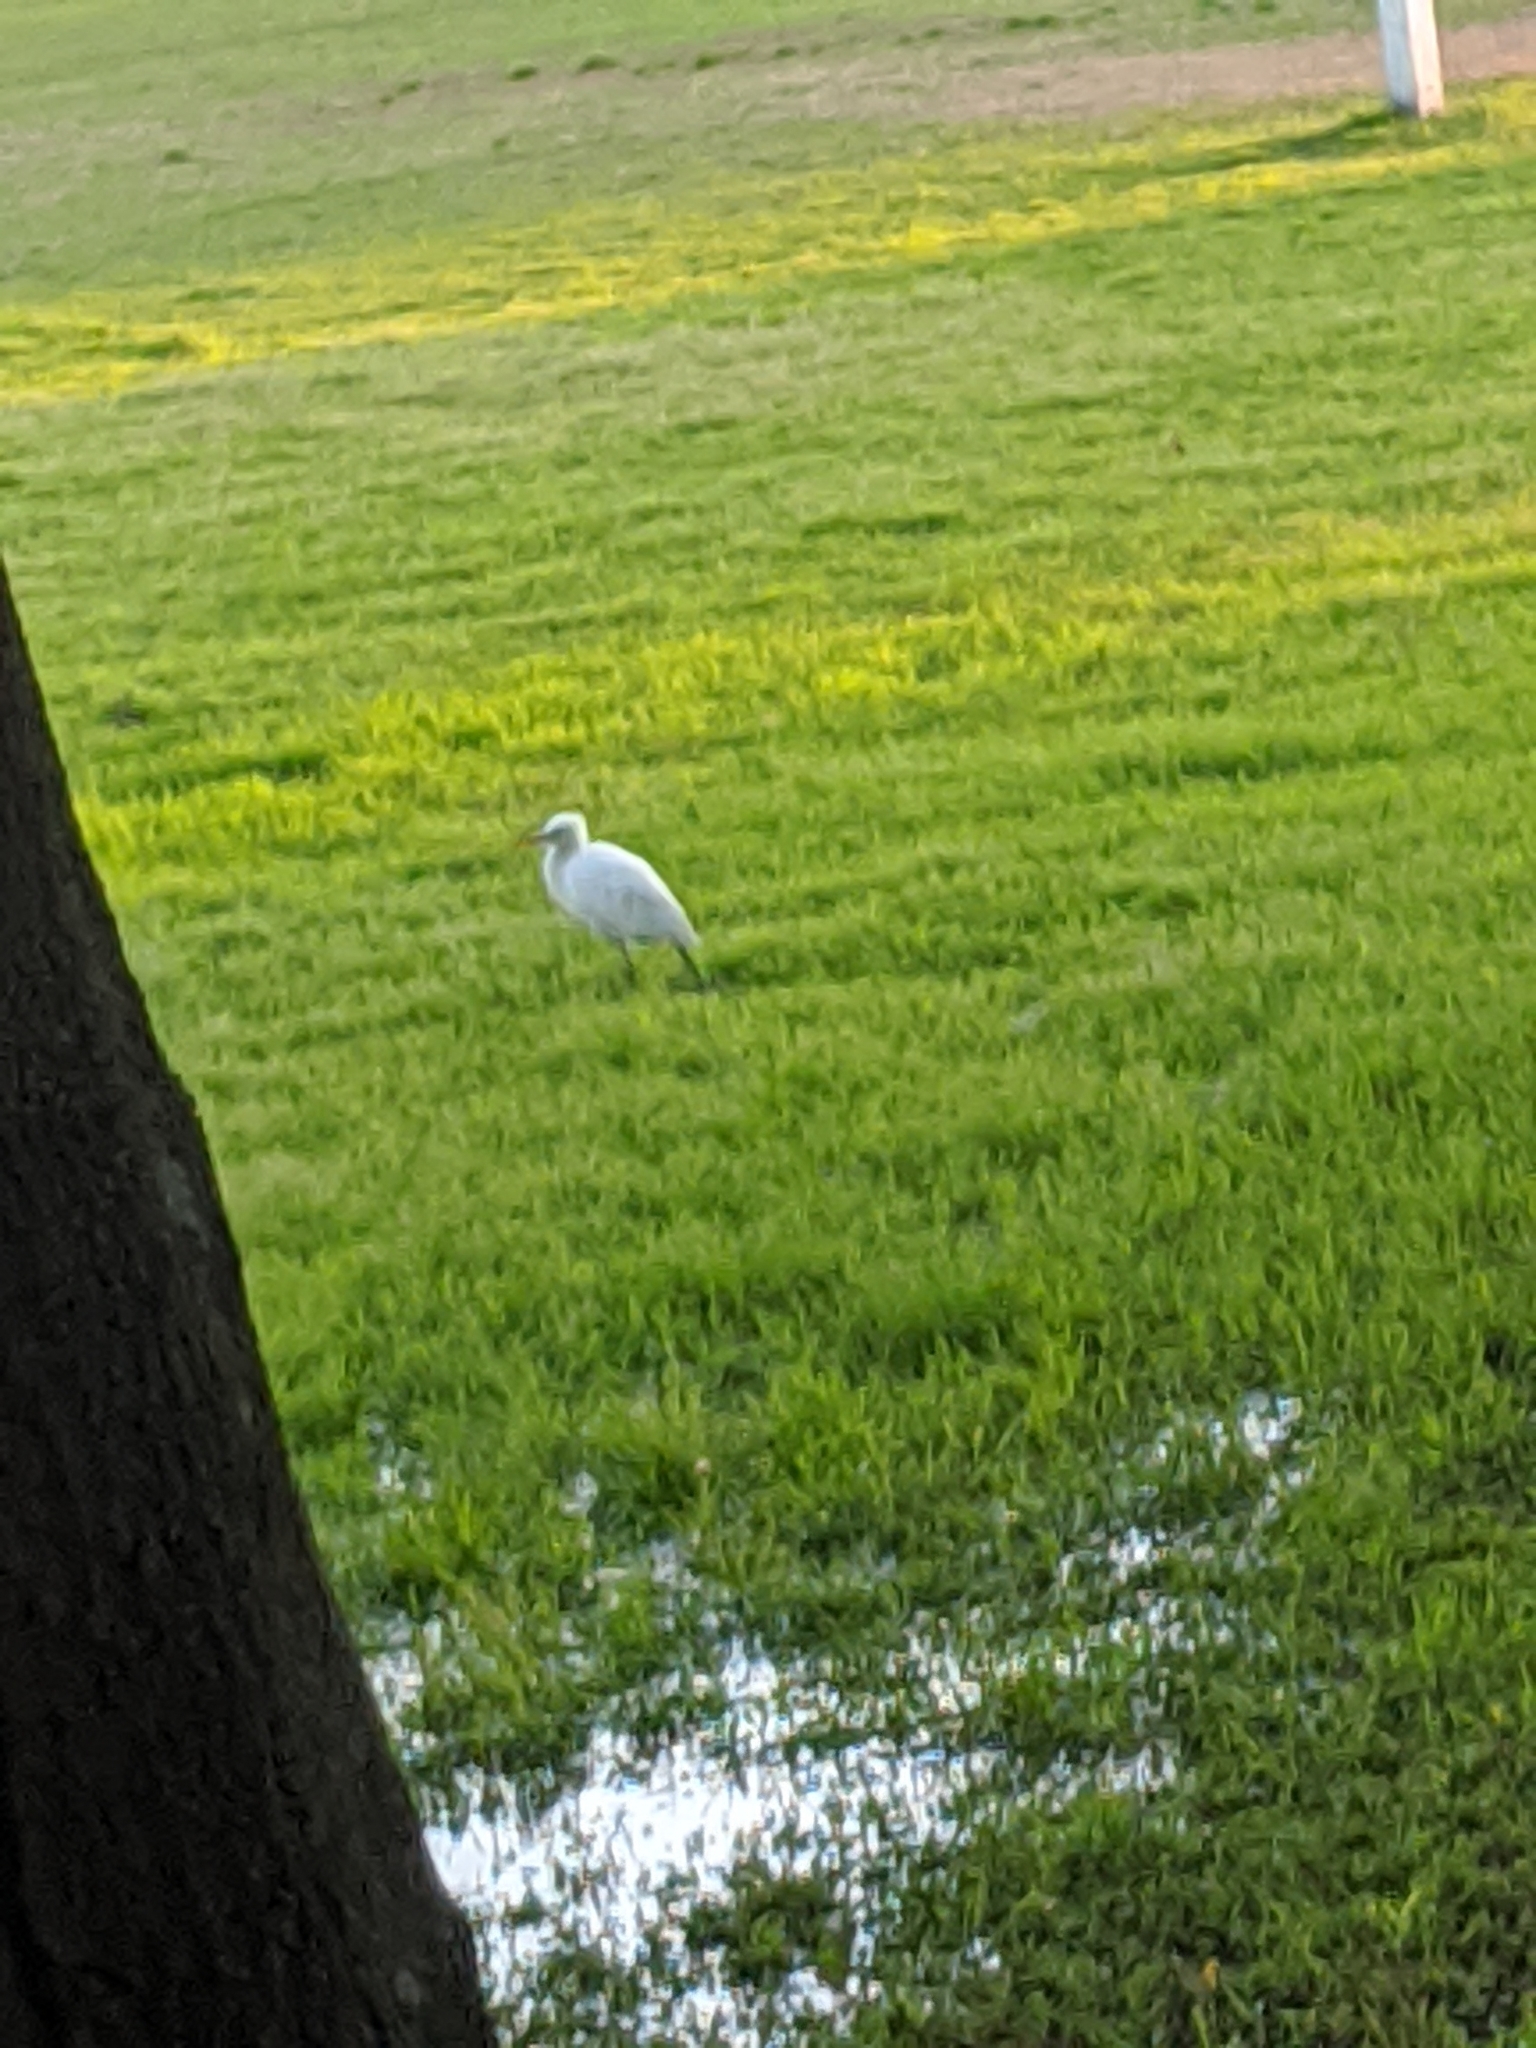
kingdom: Animalia
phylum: Chordata
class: Aves
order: Pelecaniformes
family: Ardeidae
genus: Egretta
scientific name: Egretta intermedia
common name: Intermediate egret
